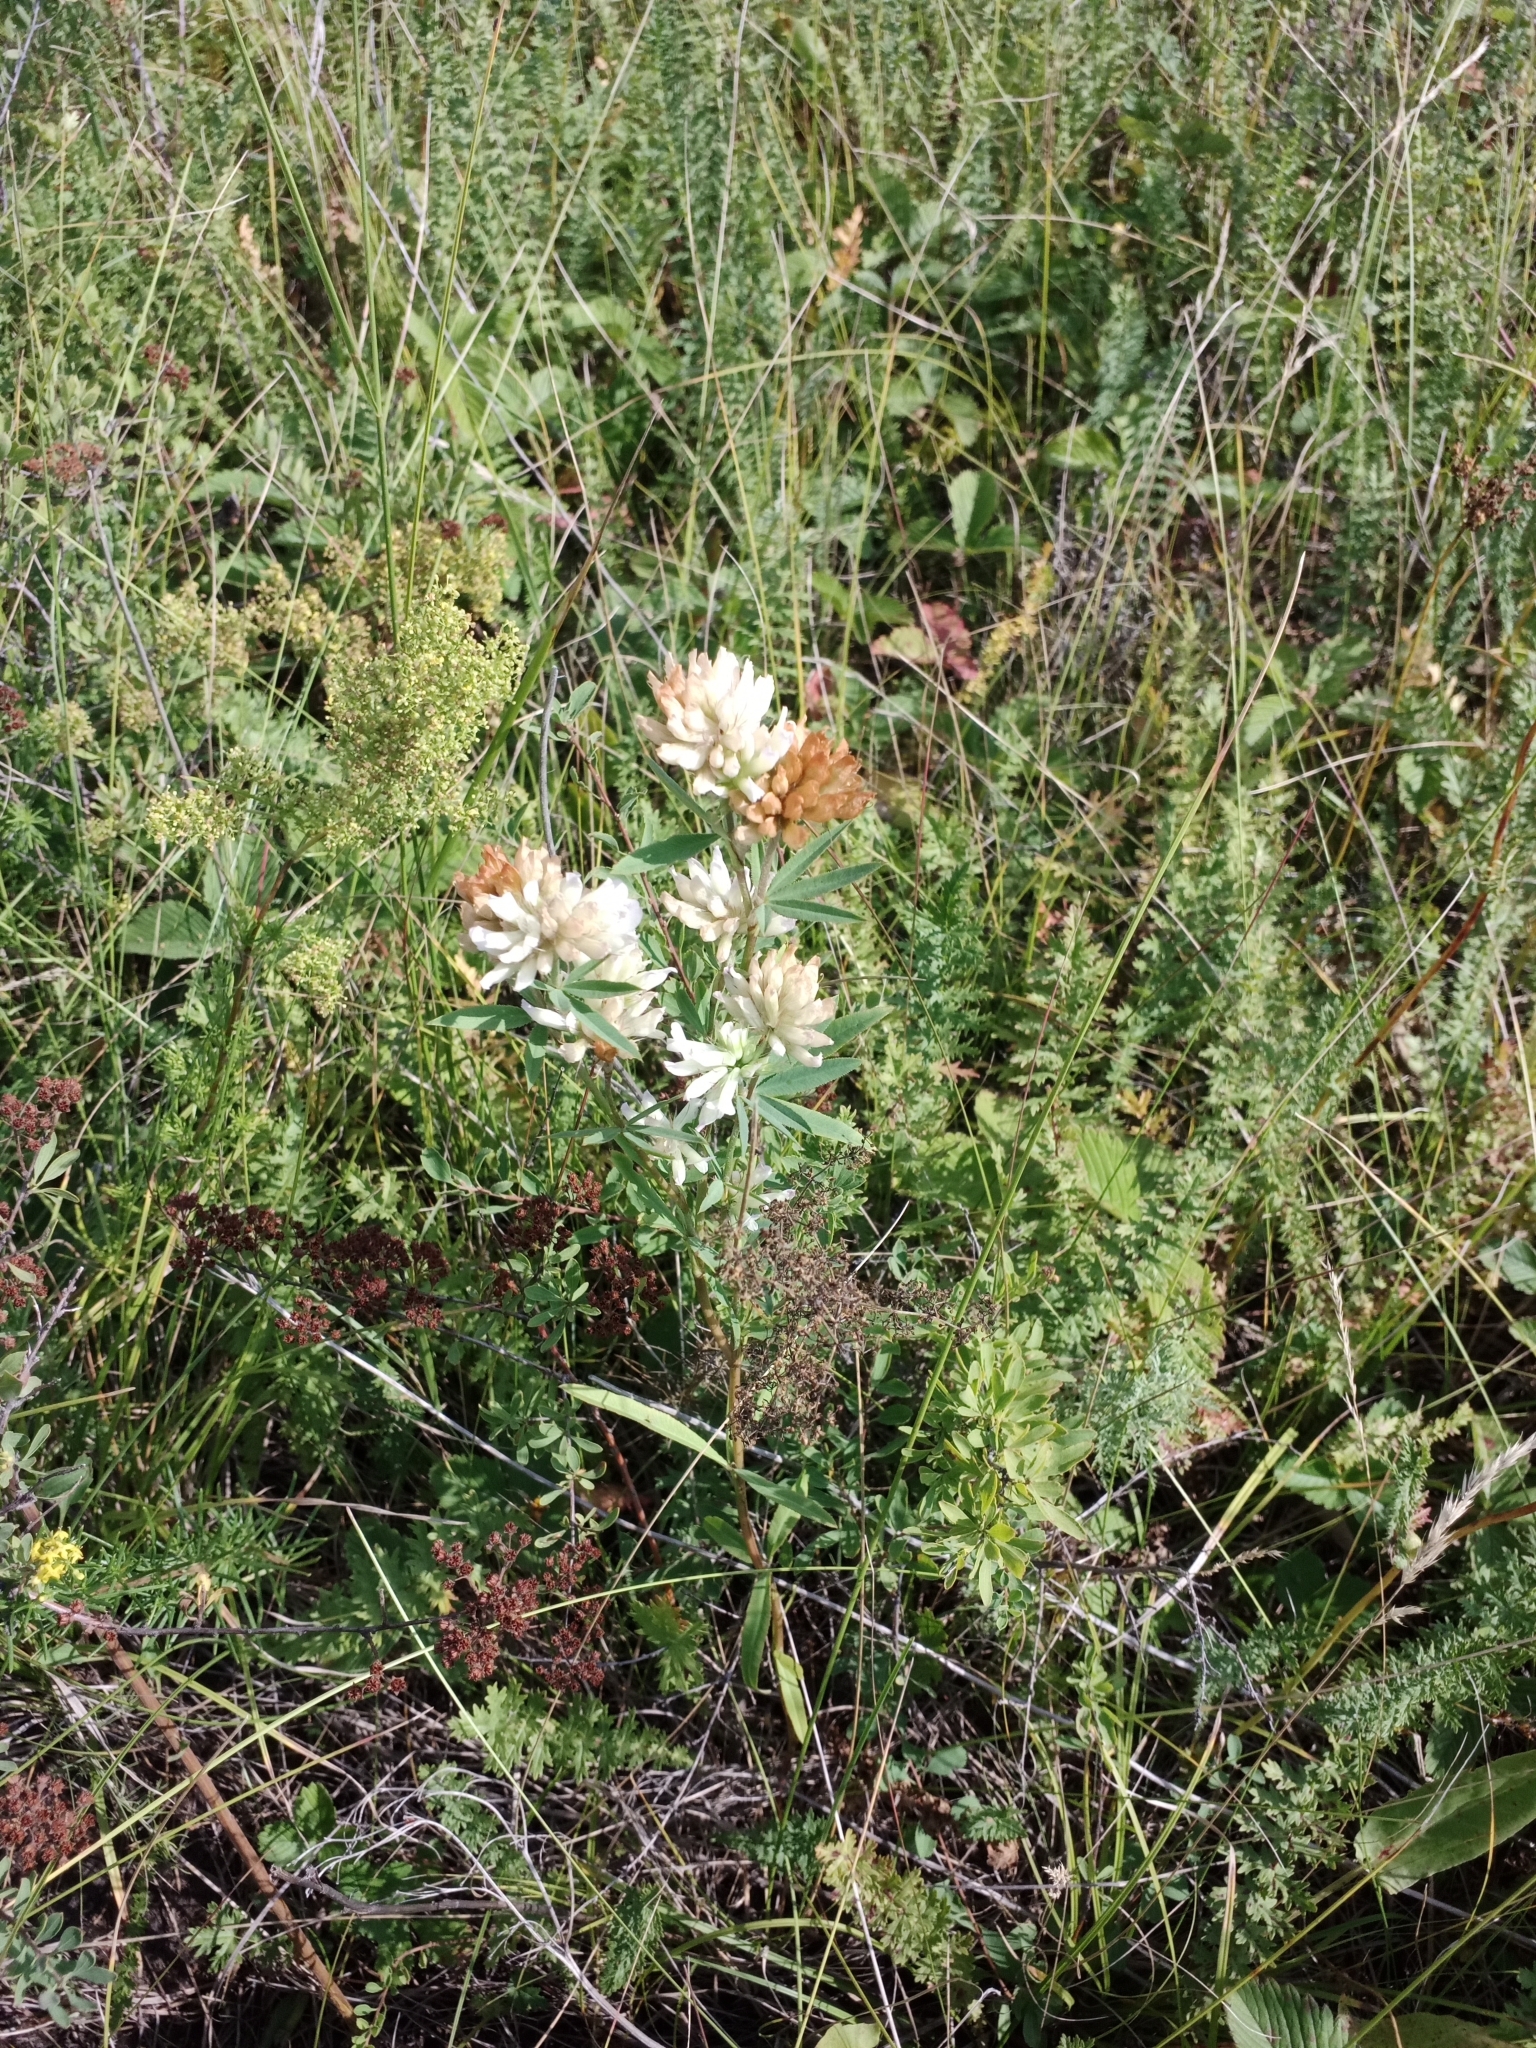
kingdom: Plantae
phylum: Tracheophyta
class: Magnoliopsida
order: Fabales
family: Fabaceae
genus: Trifolium
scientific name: Trifolium lupinaster
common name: Lupine clover
